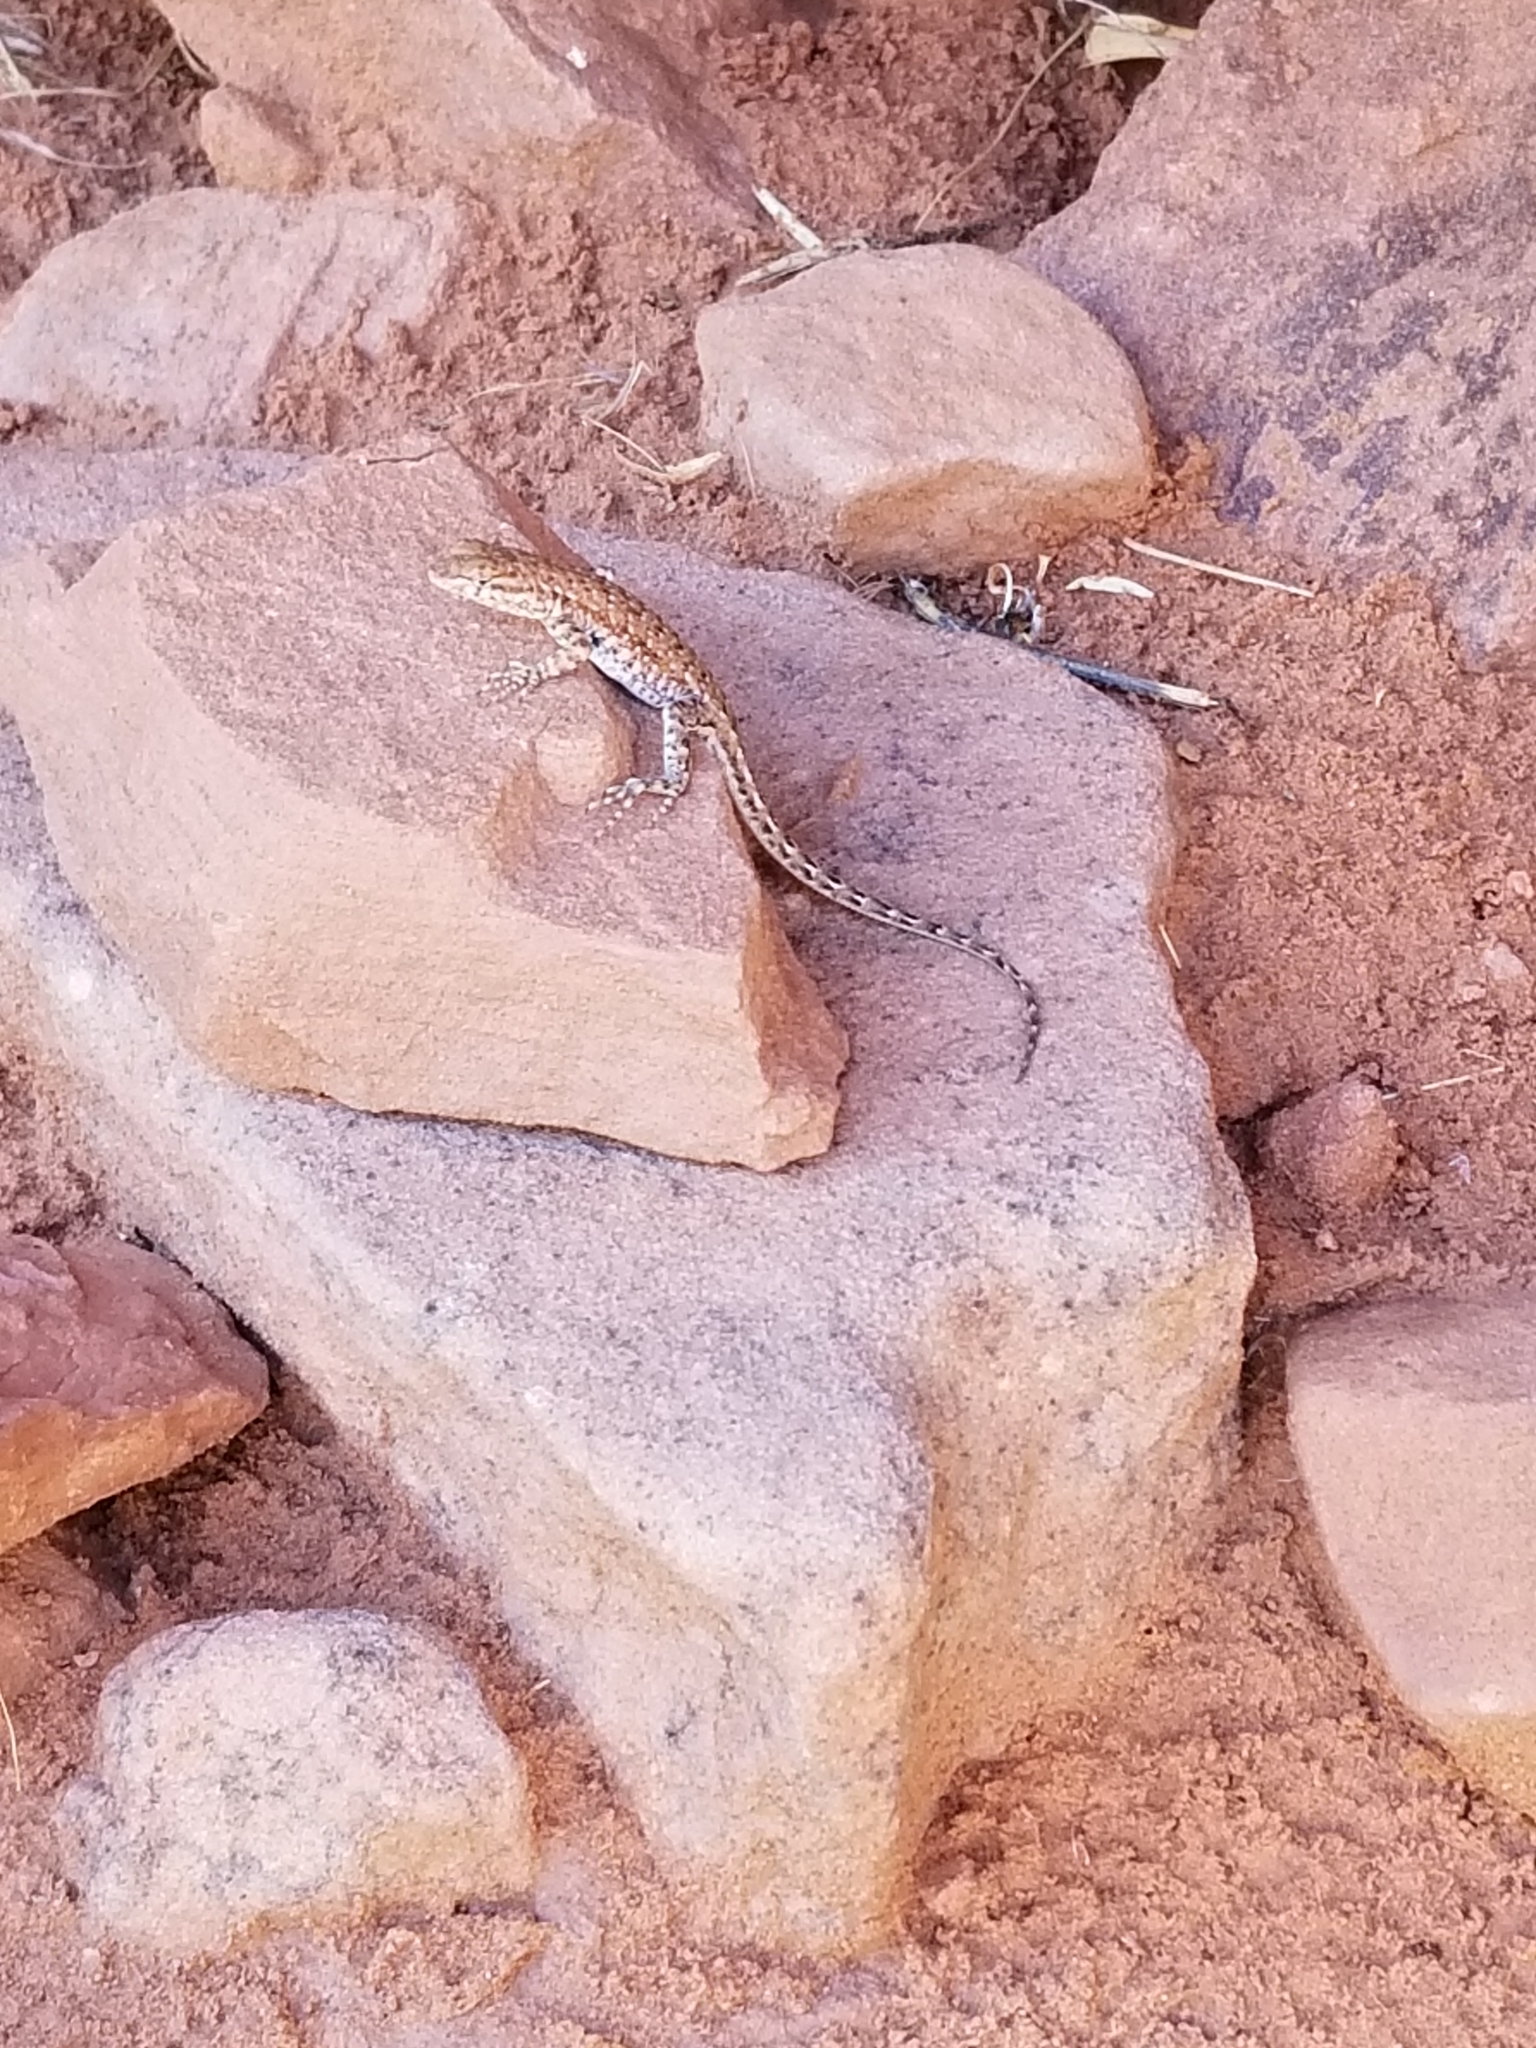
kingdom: Animalia
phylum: Chordata
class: Squamata
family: Phrynosomatidae
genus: Uta
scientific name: Uta stansburiana
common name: Side-blotched lizard
